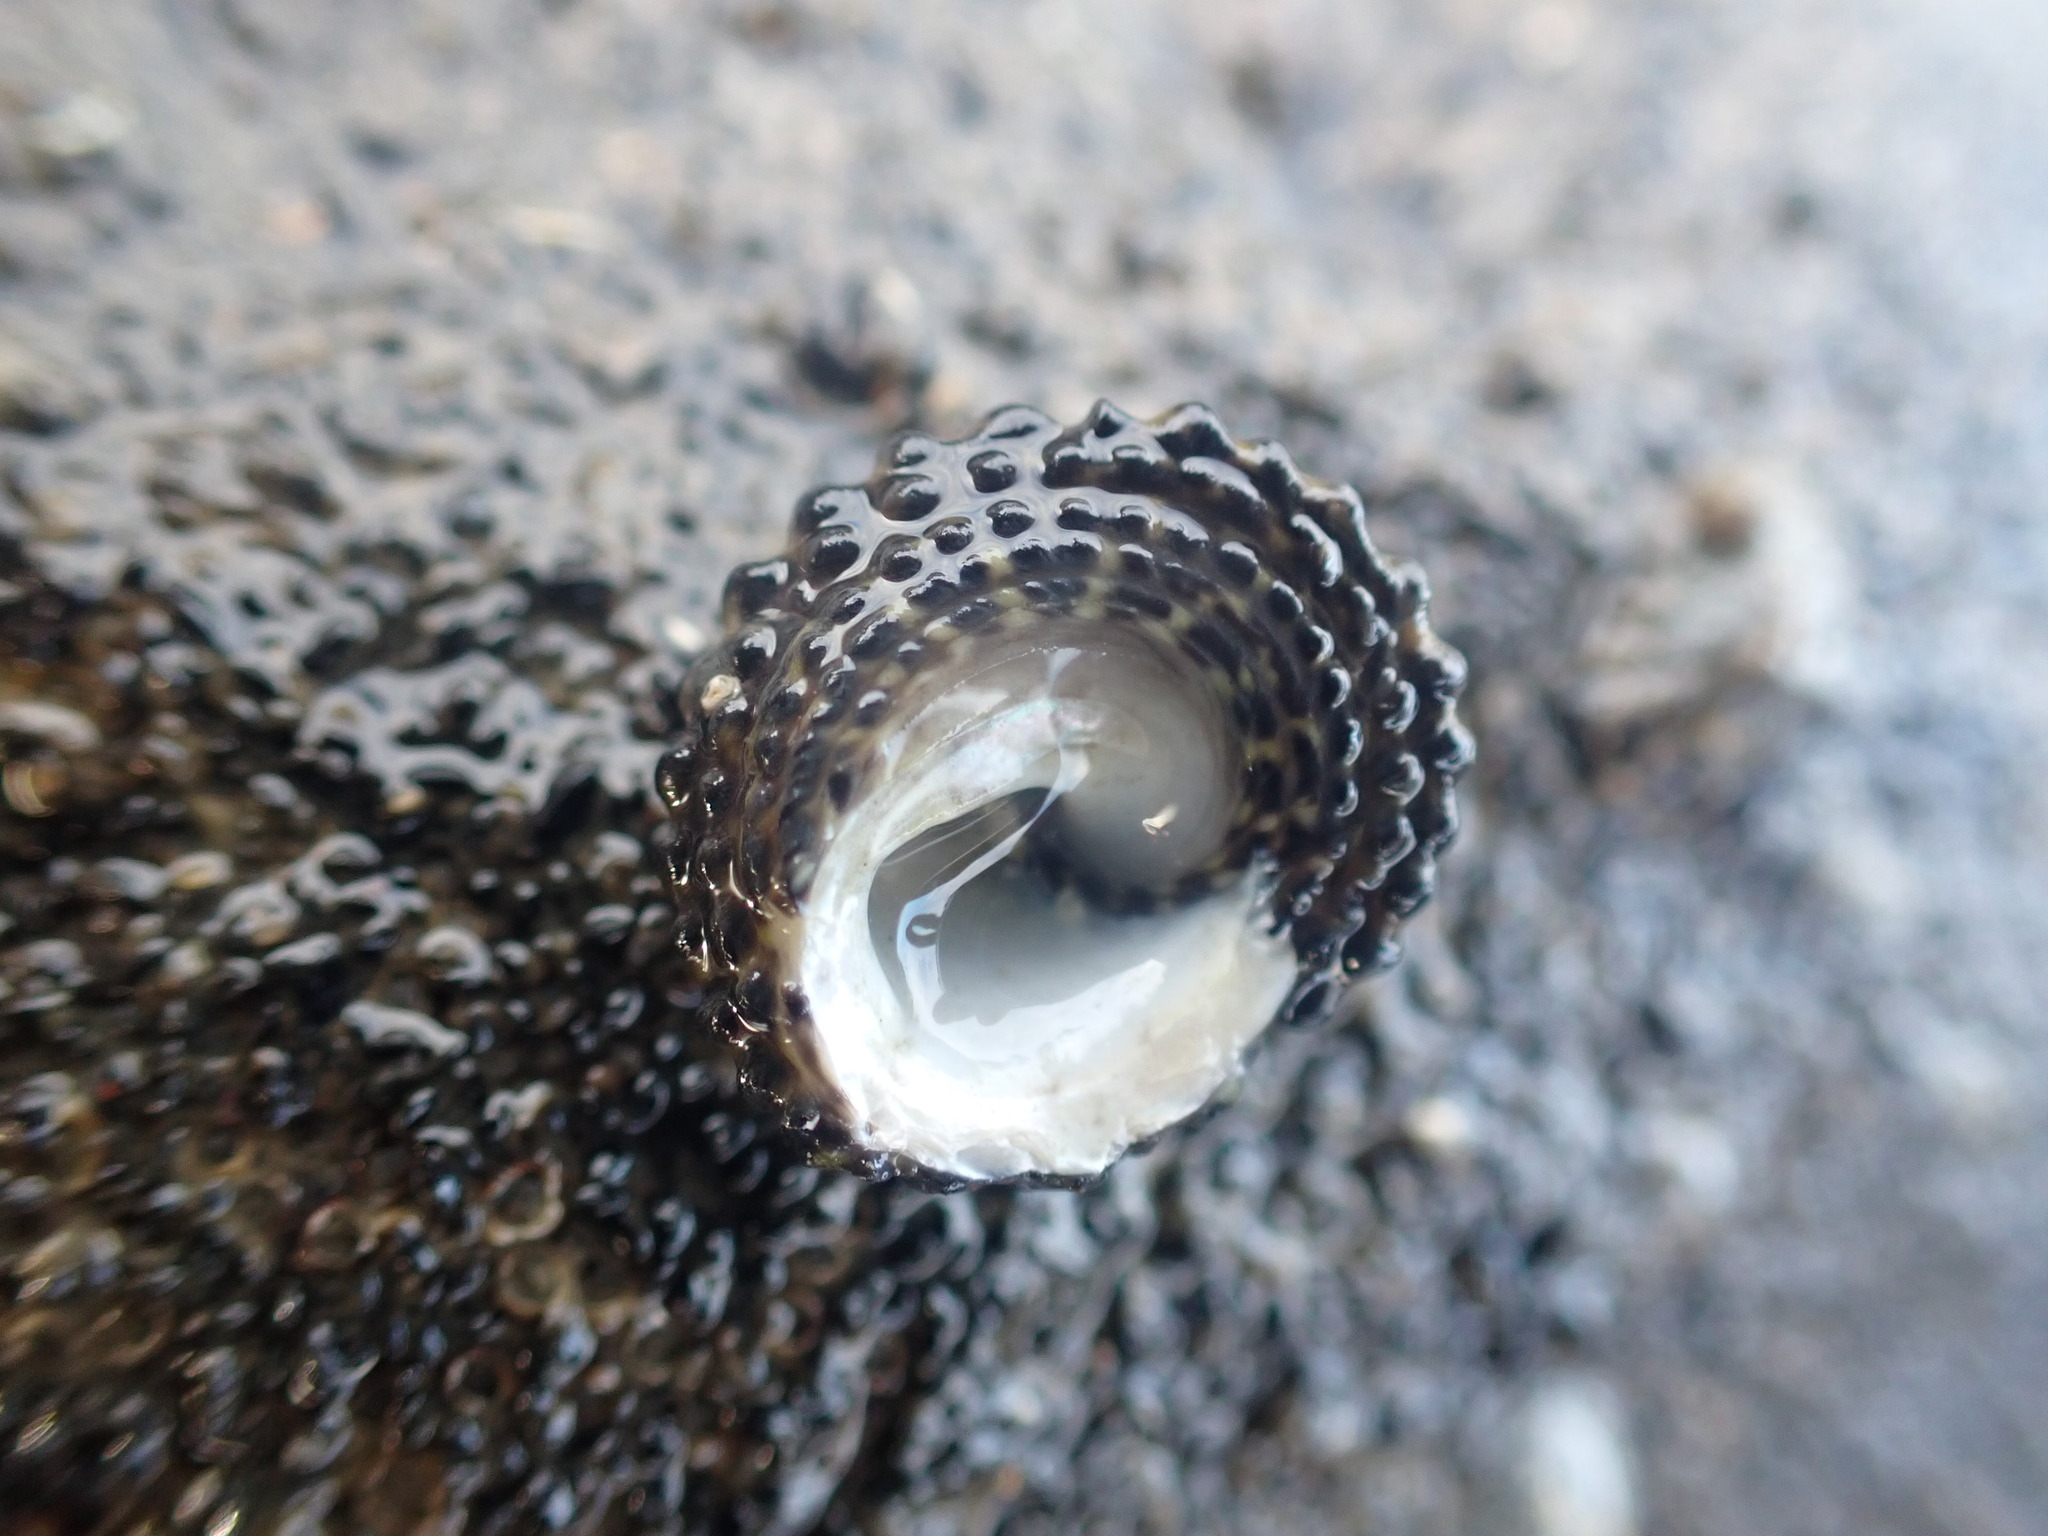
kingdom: Animalia
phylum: Mollusca
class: Gastropoda
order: Trochida
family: Trochidae
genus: Diloma
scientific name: Diloma bicanaliculatum
